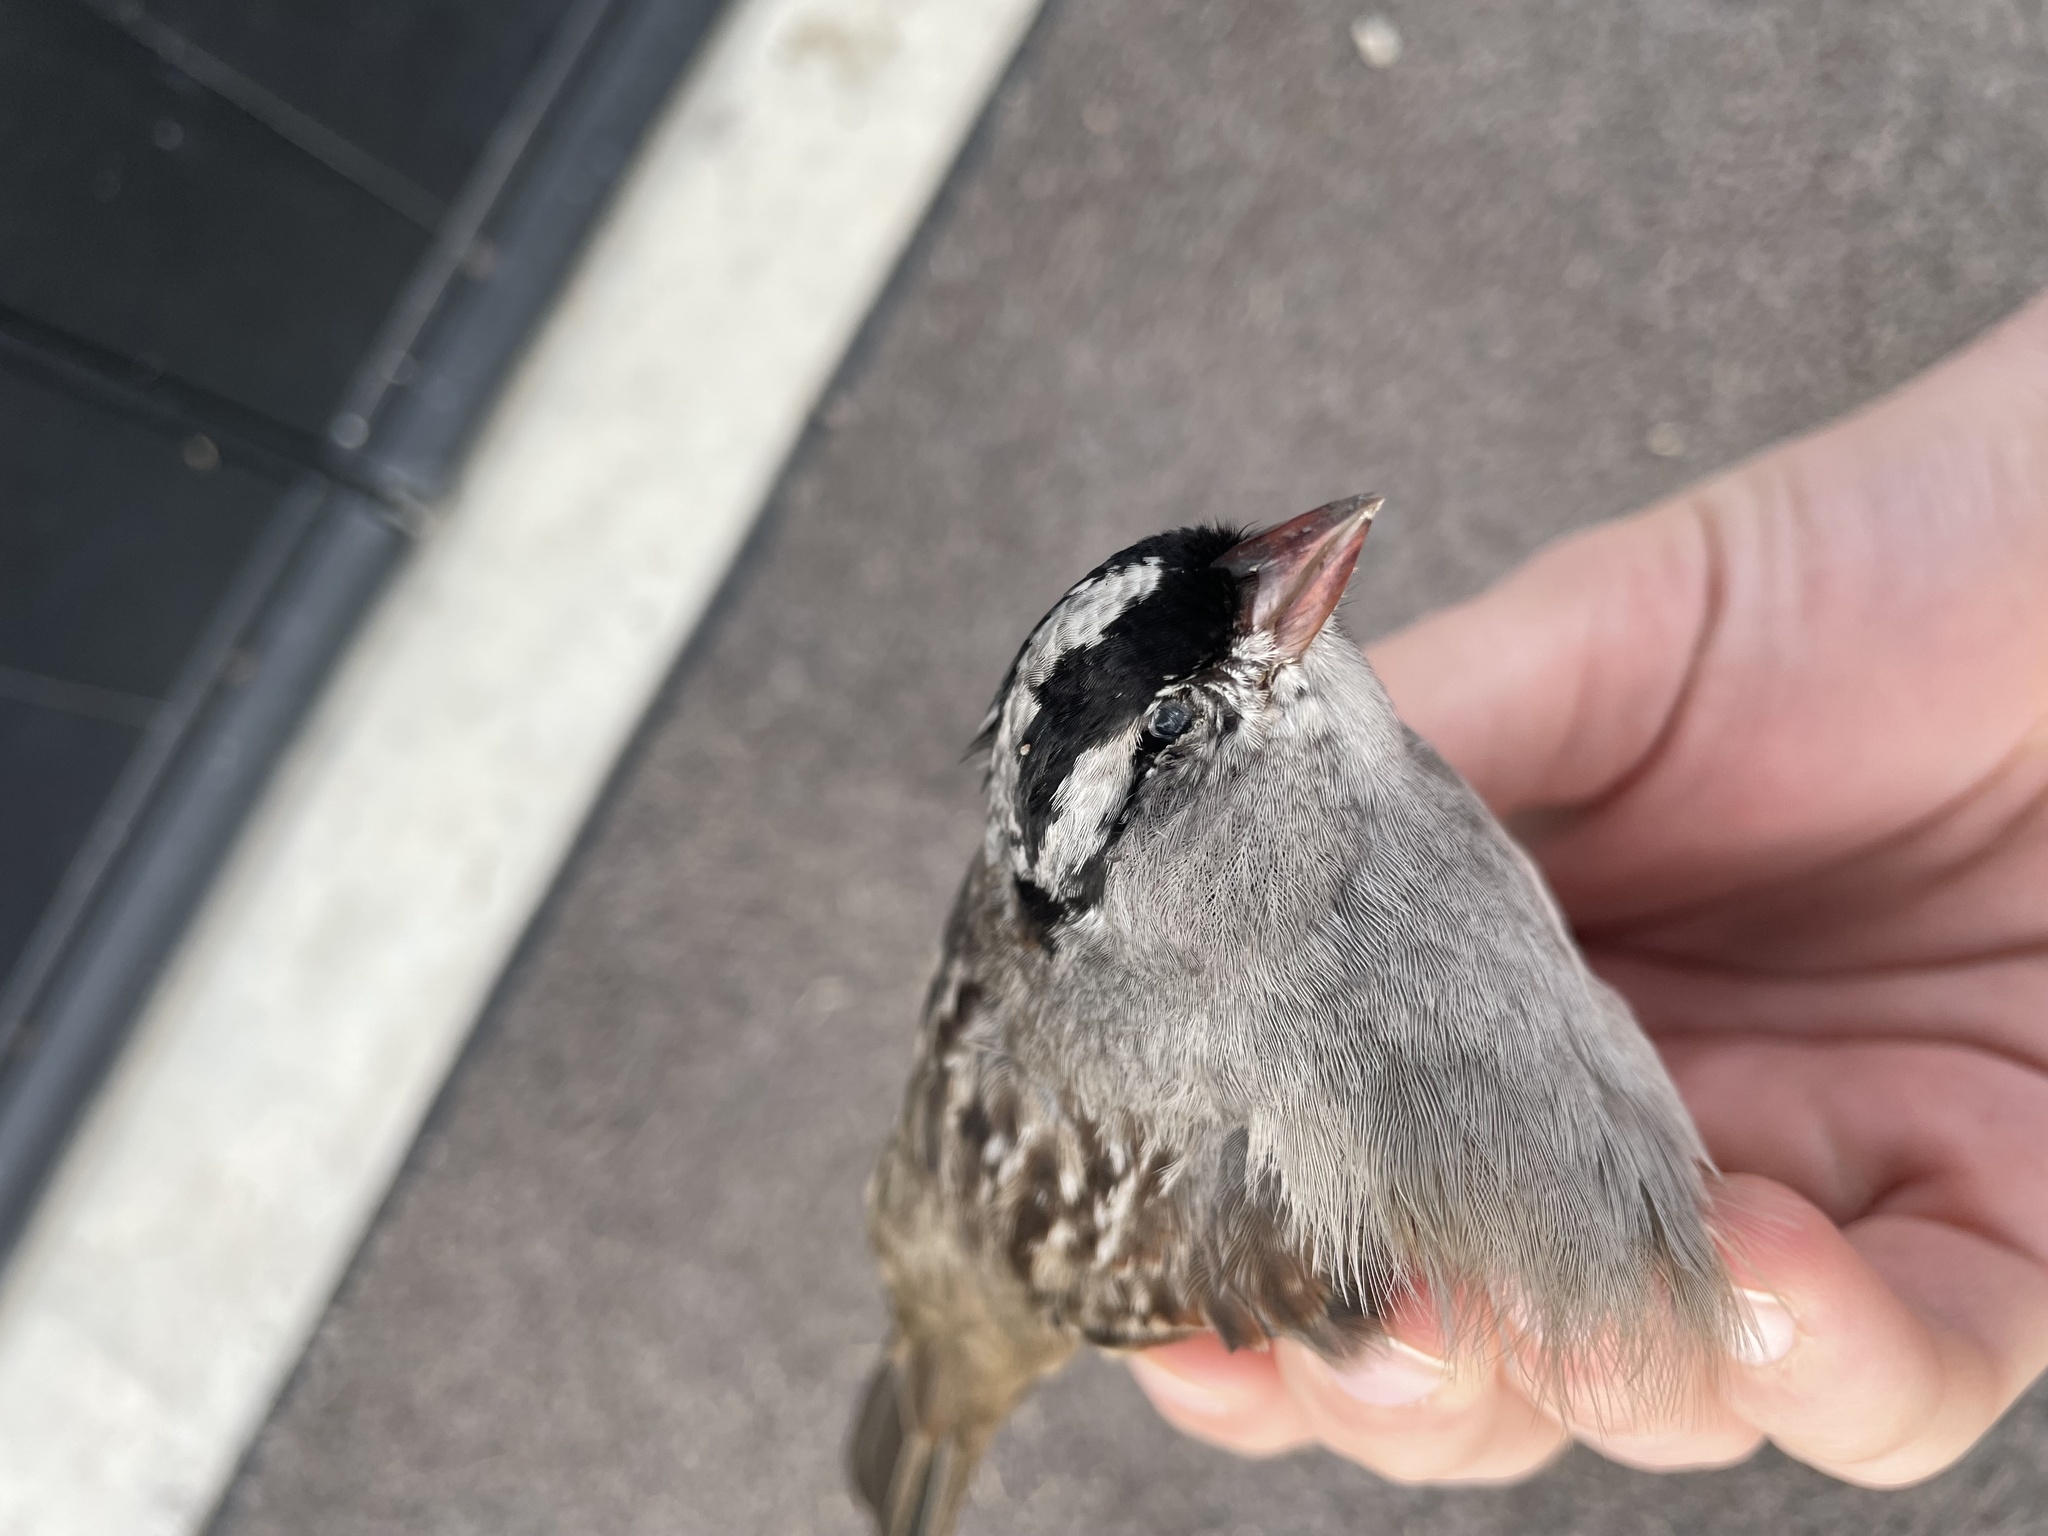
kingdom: Animalia
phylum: Chordata
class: Aves
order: Passeriformes
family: Passerellidae
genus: Zonotrichia
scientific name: Zonotrichia leucophrys
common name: White-crowned sparrow
